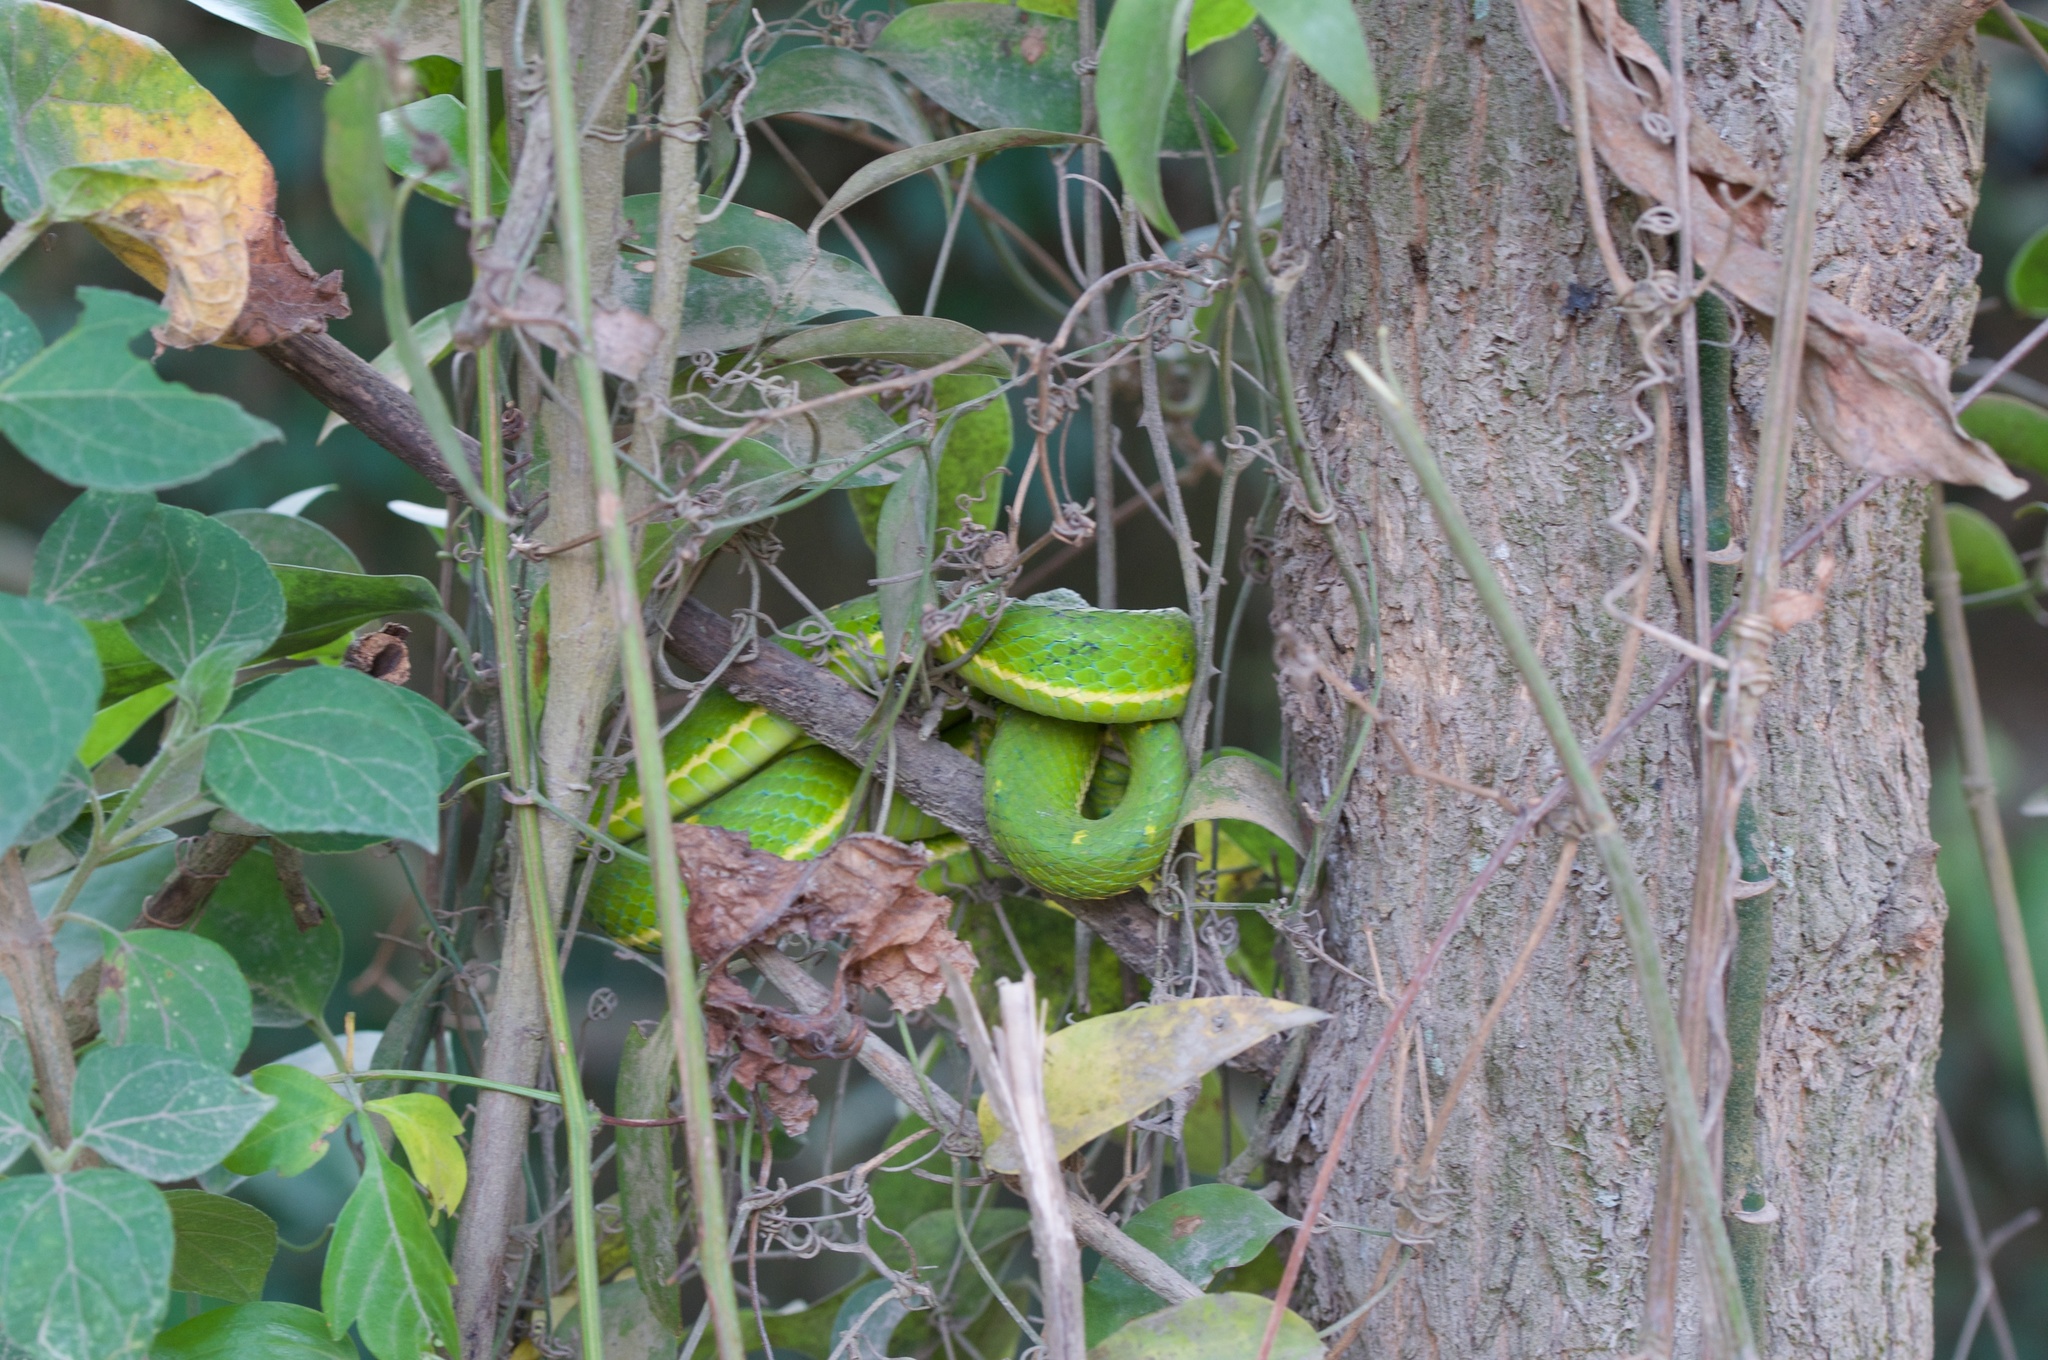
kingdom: Animalia
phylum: Chordata
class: Squamata
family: Viperidae
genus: Bothriechis
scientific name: Bothriechis lateralis
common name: Coffee palm viper
